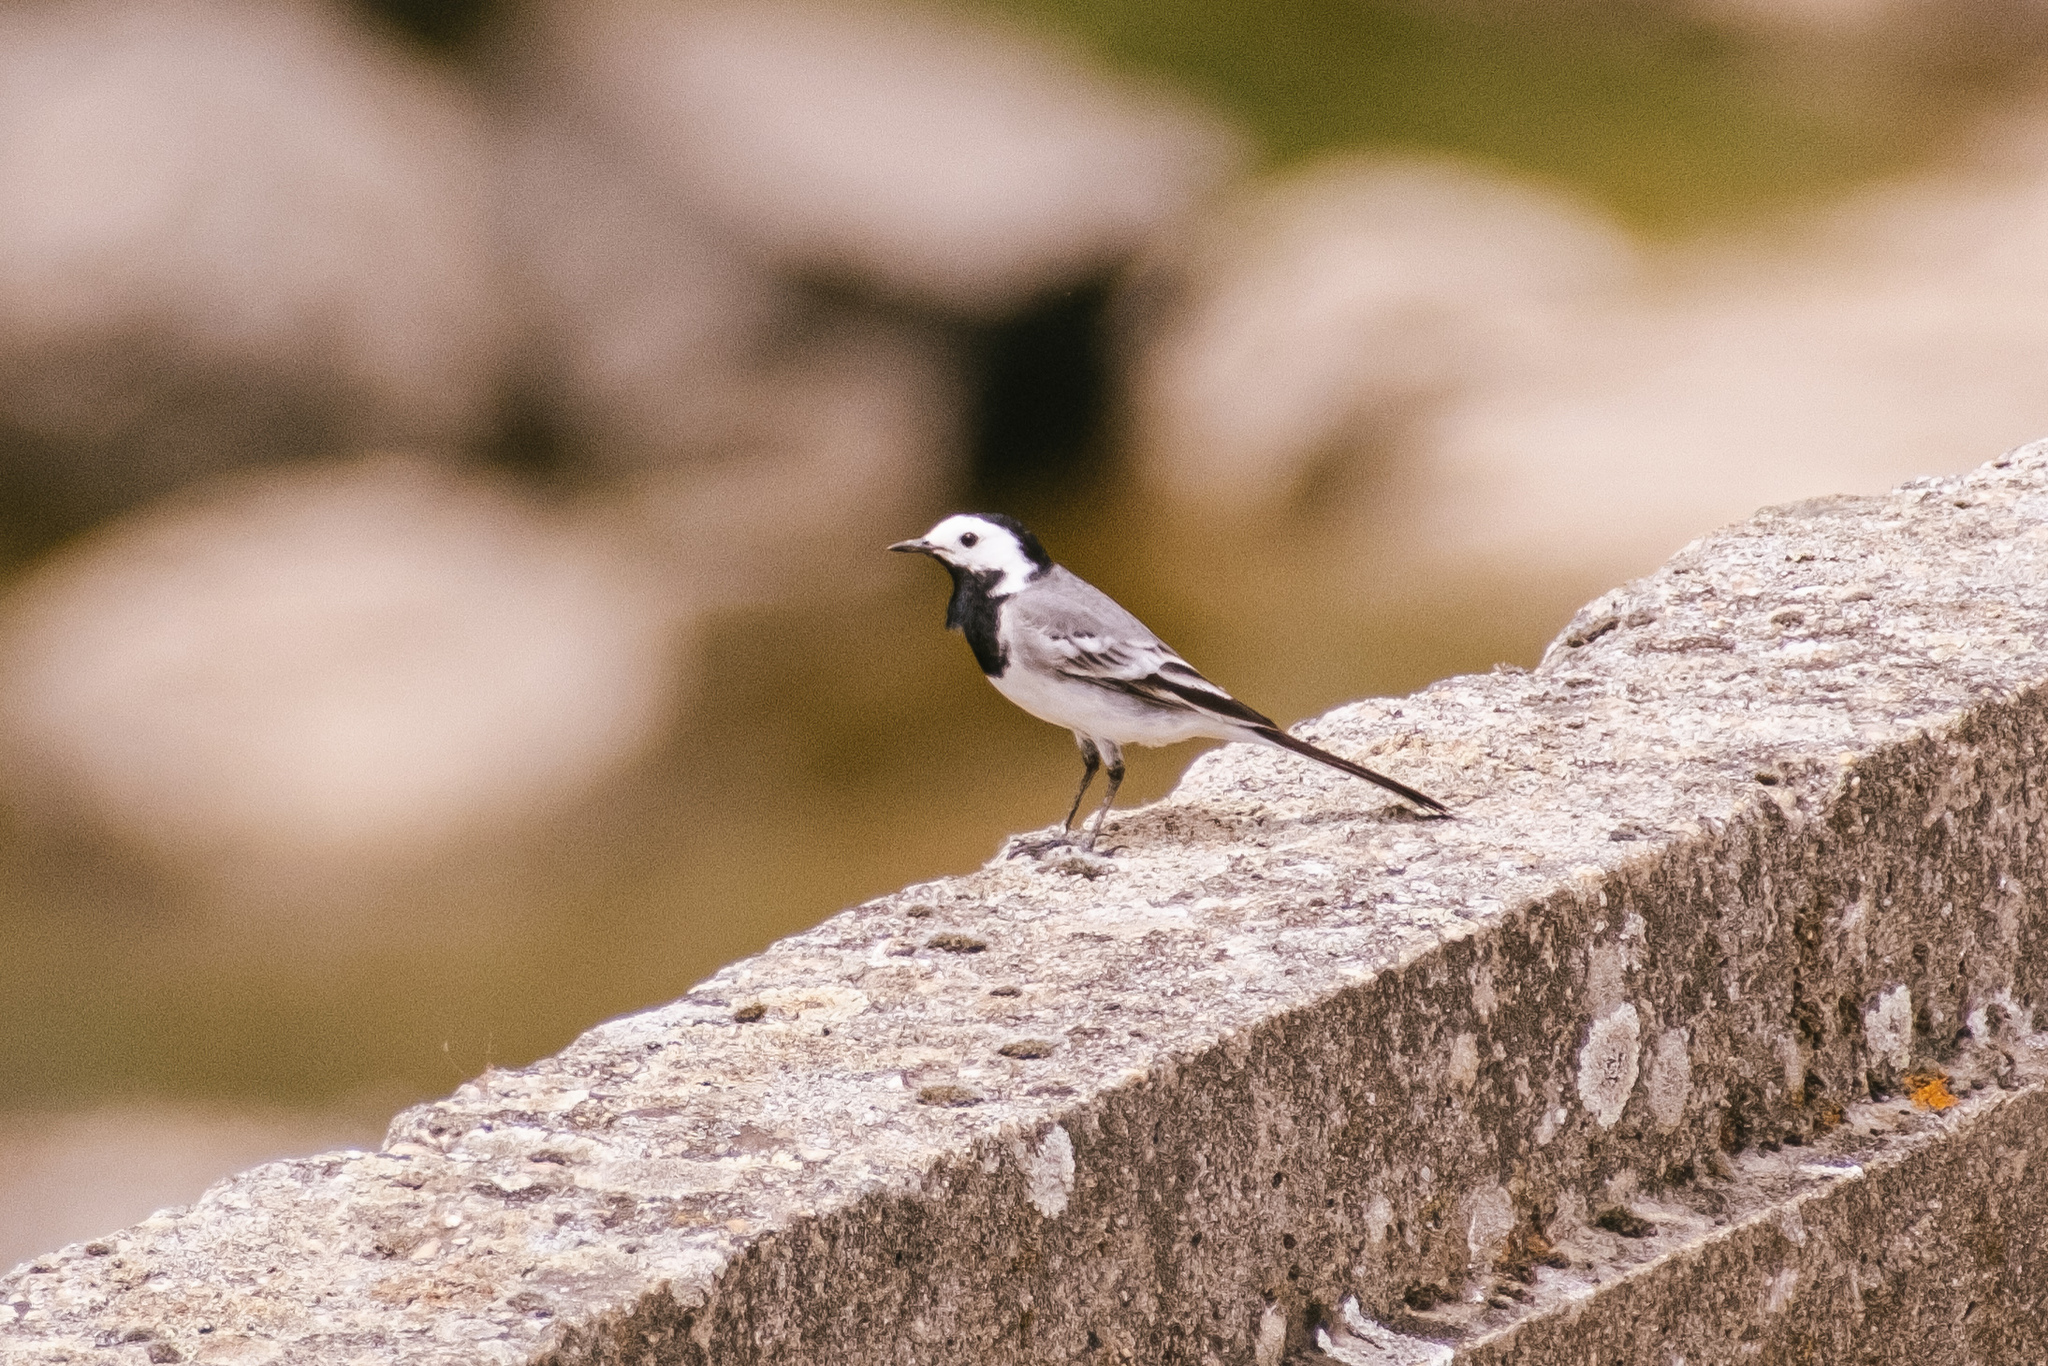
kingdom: Animalia
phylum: Chordata
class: Aves
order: Passeriformes
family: Motacillidae
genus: Motacilla
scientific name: Motacilla alba
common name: White wagtail
